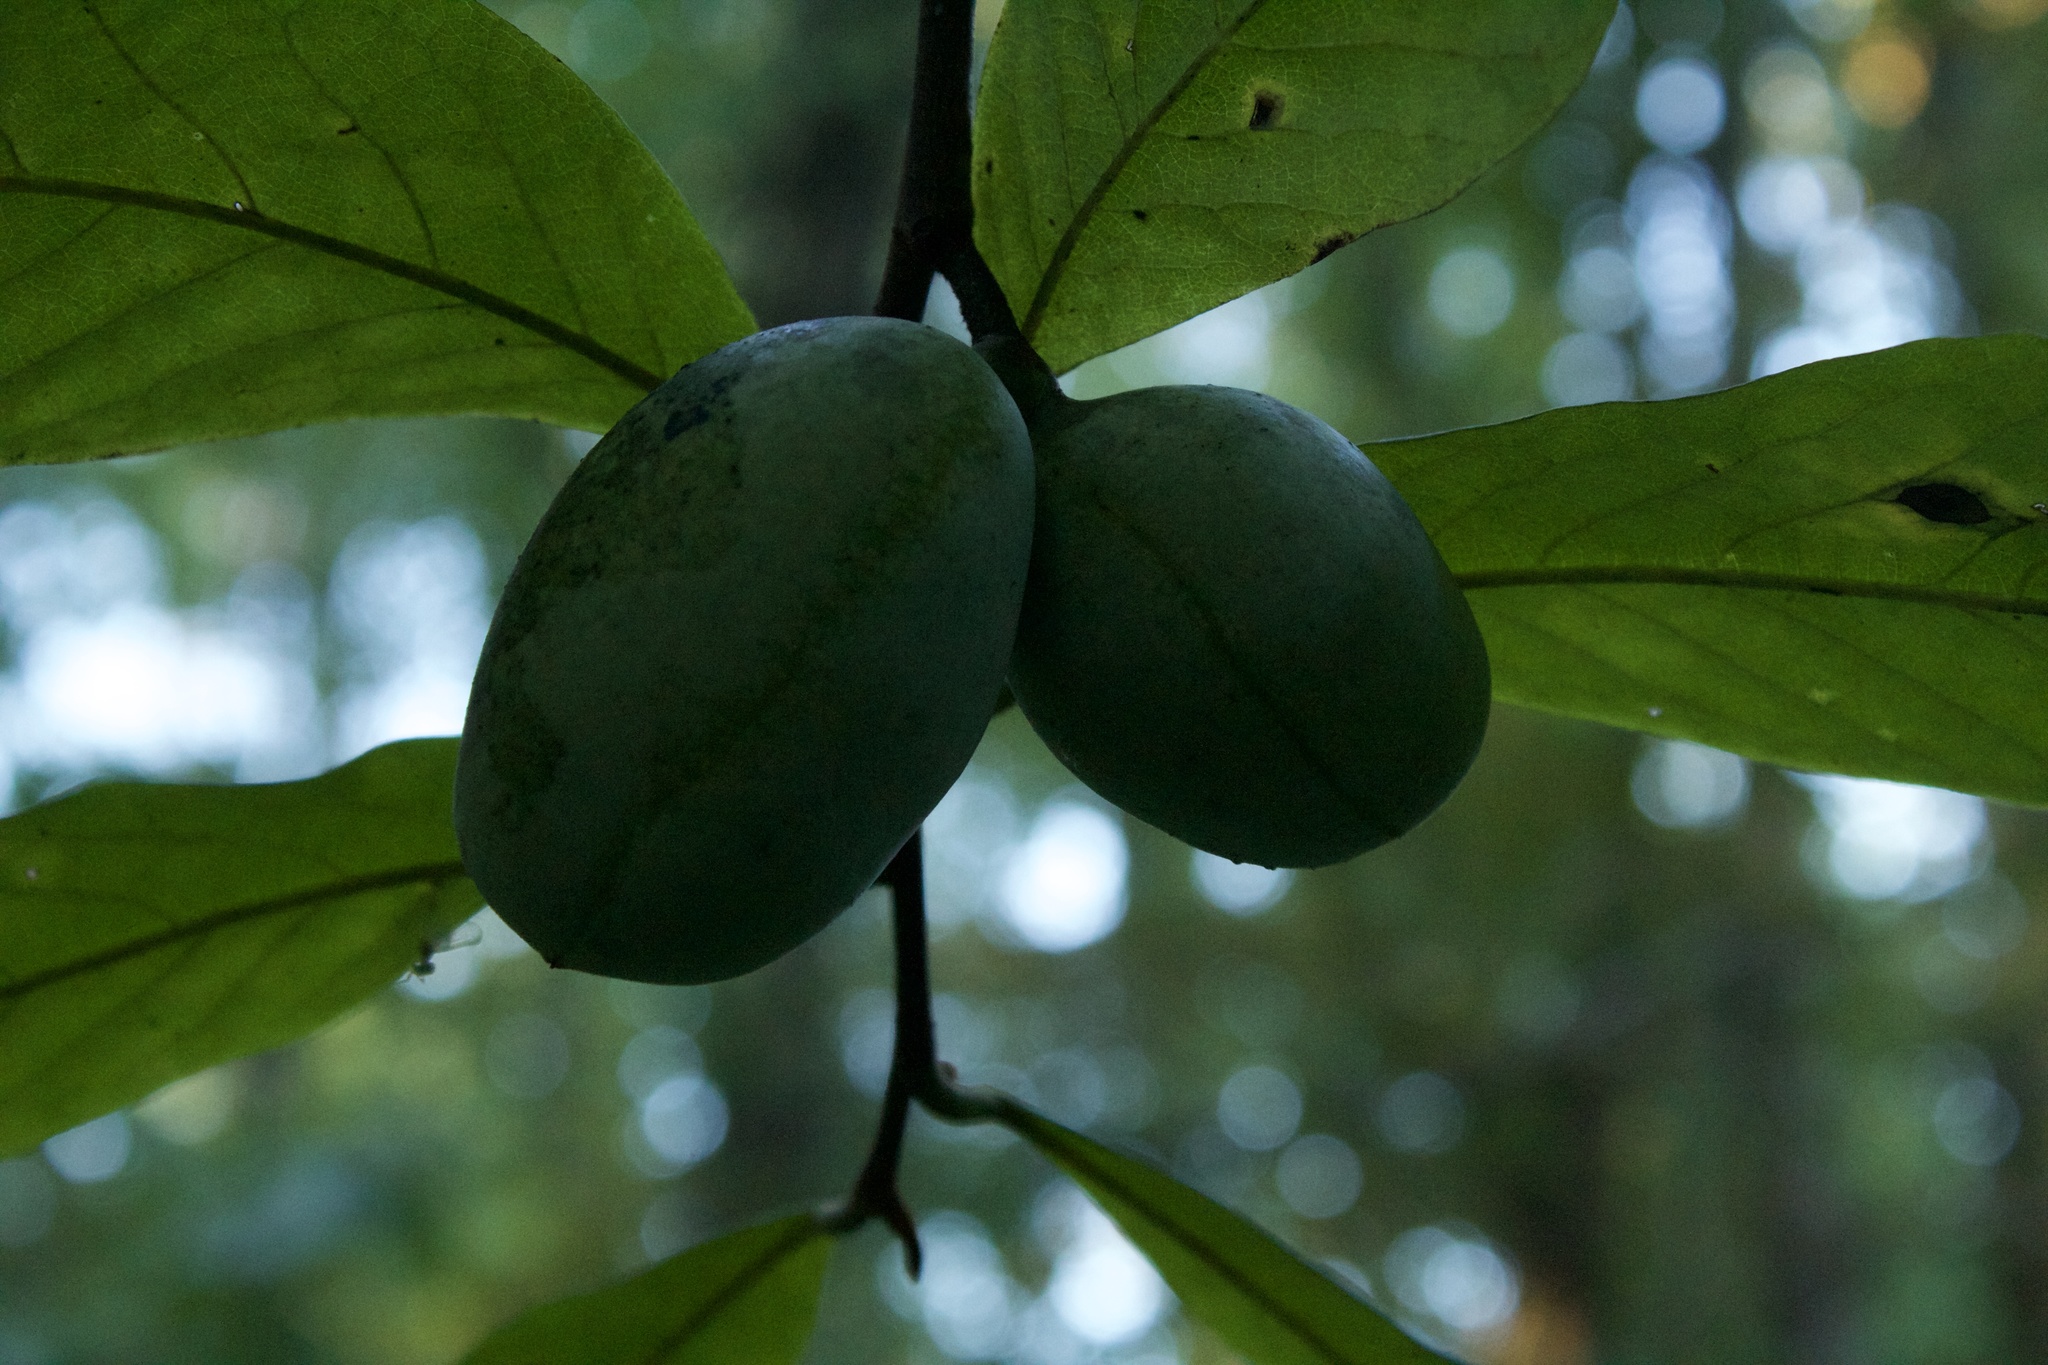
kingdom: Plantae
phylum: Tracheophyta
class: Magnoliopsida
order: Magnoliales
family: Annonaceae
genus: Asimina
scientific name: Asimina triloba
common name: Dog-banana
